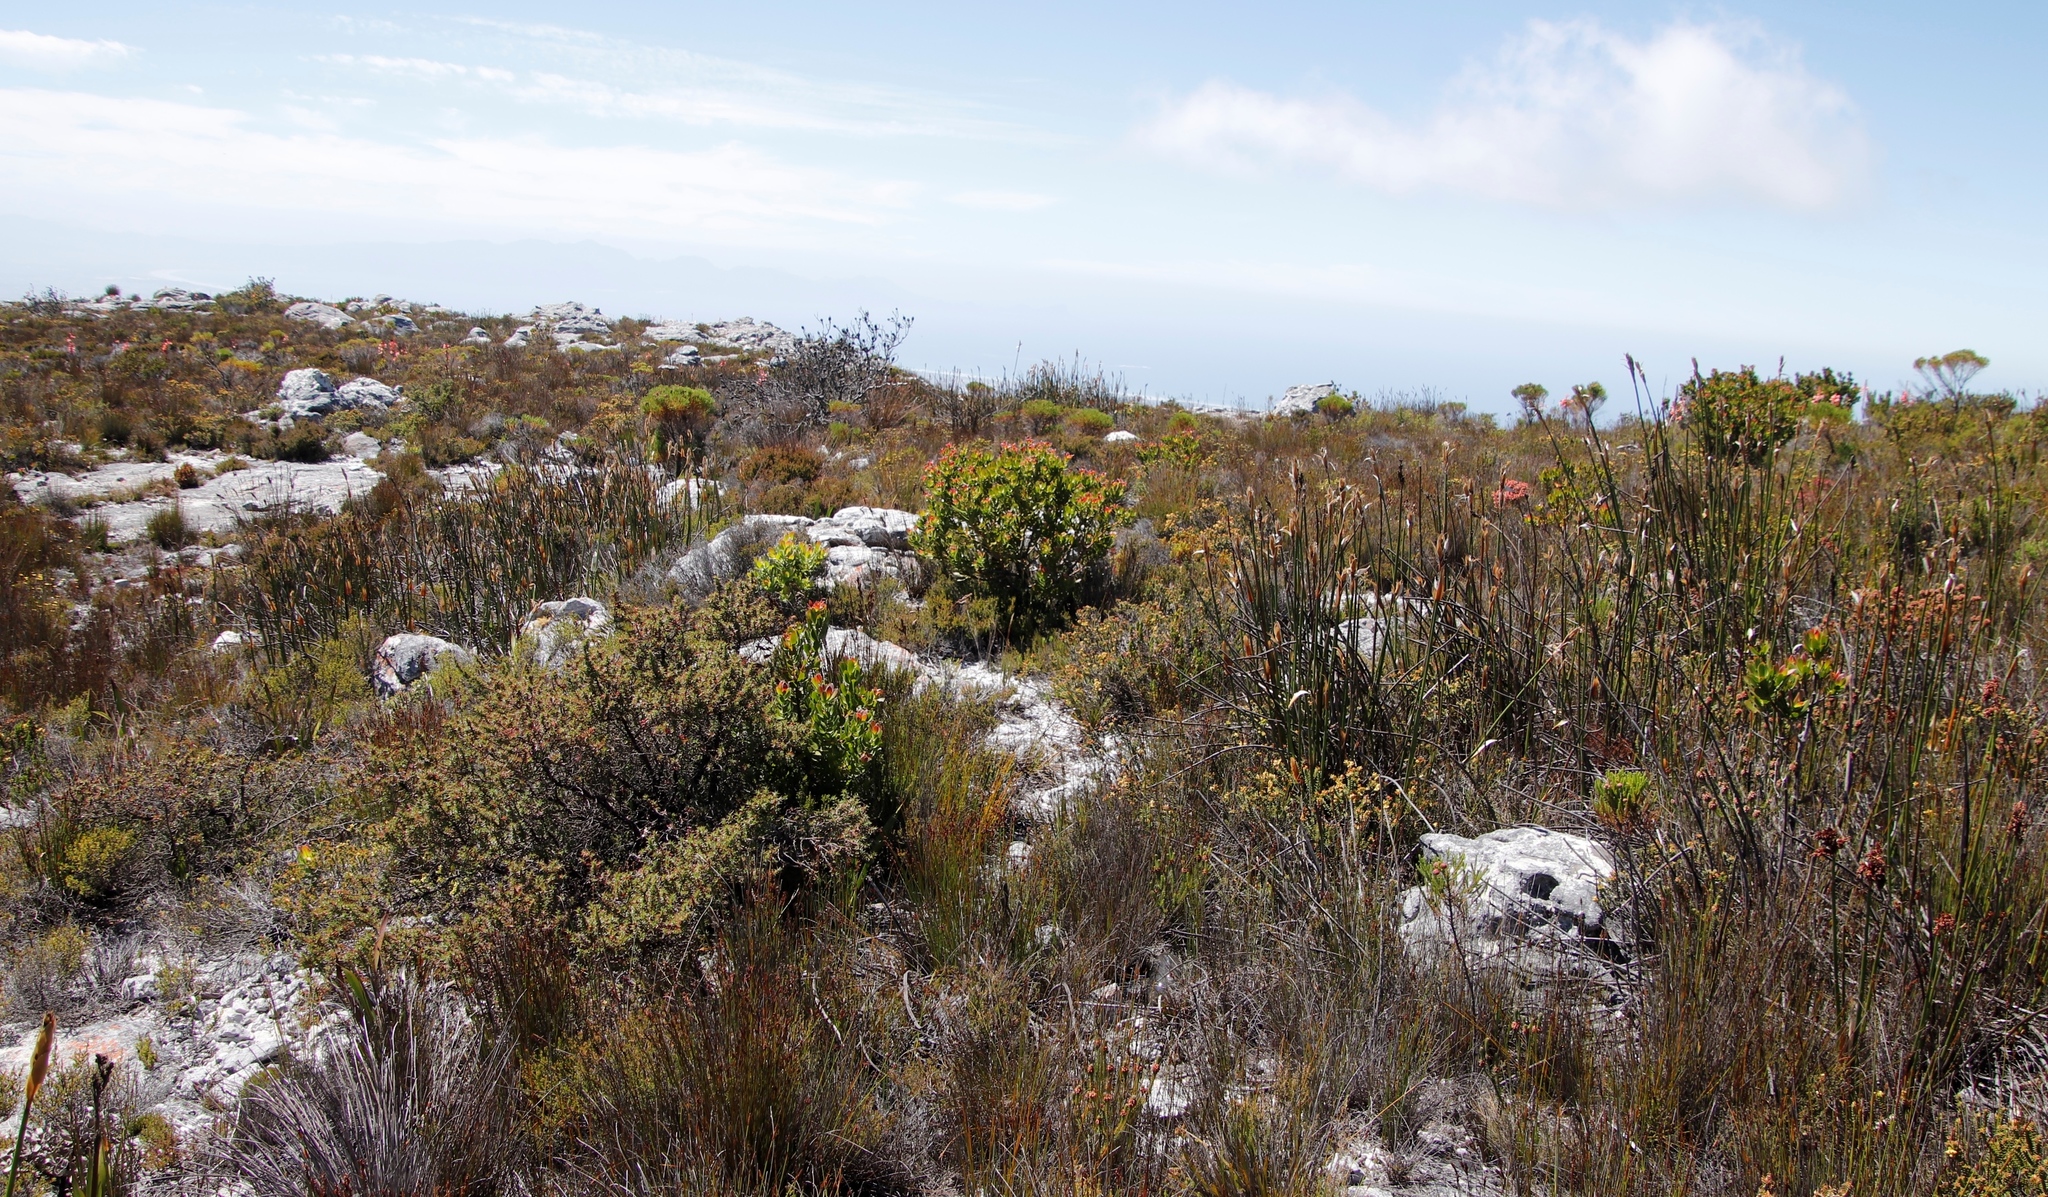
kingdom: Plantae
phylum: Tracheophyta
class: Magnoliopsida
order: Proteales
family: Proteaceae
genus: Leucadendron
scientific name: Leucadendron strobilinum
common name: Mountain rose
